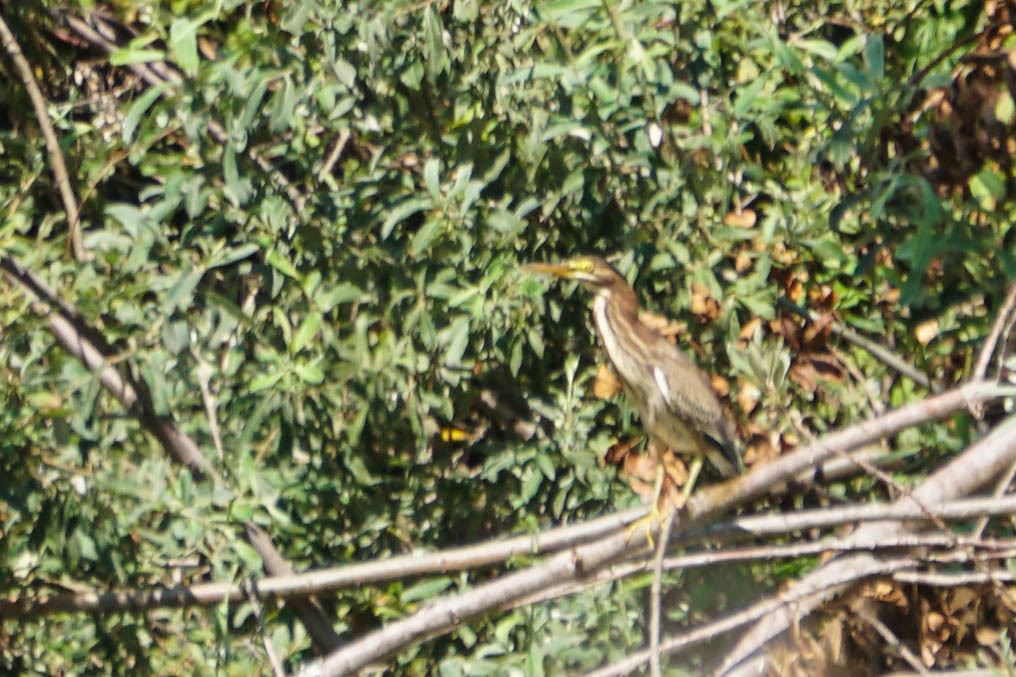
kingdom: Animalia
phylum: Chordata
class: Aves
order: Pelecaniformes
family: Ardeidae
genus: Butorides
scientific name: Butorides virescens
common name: Green heron
